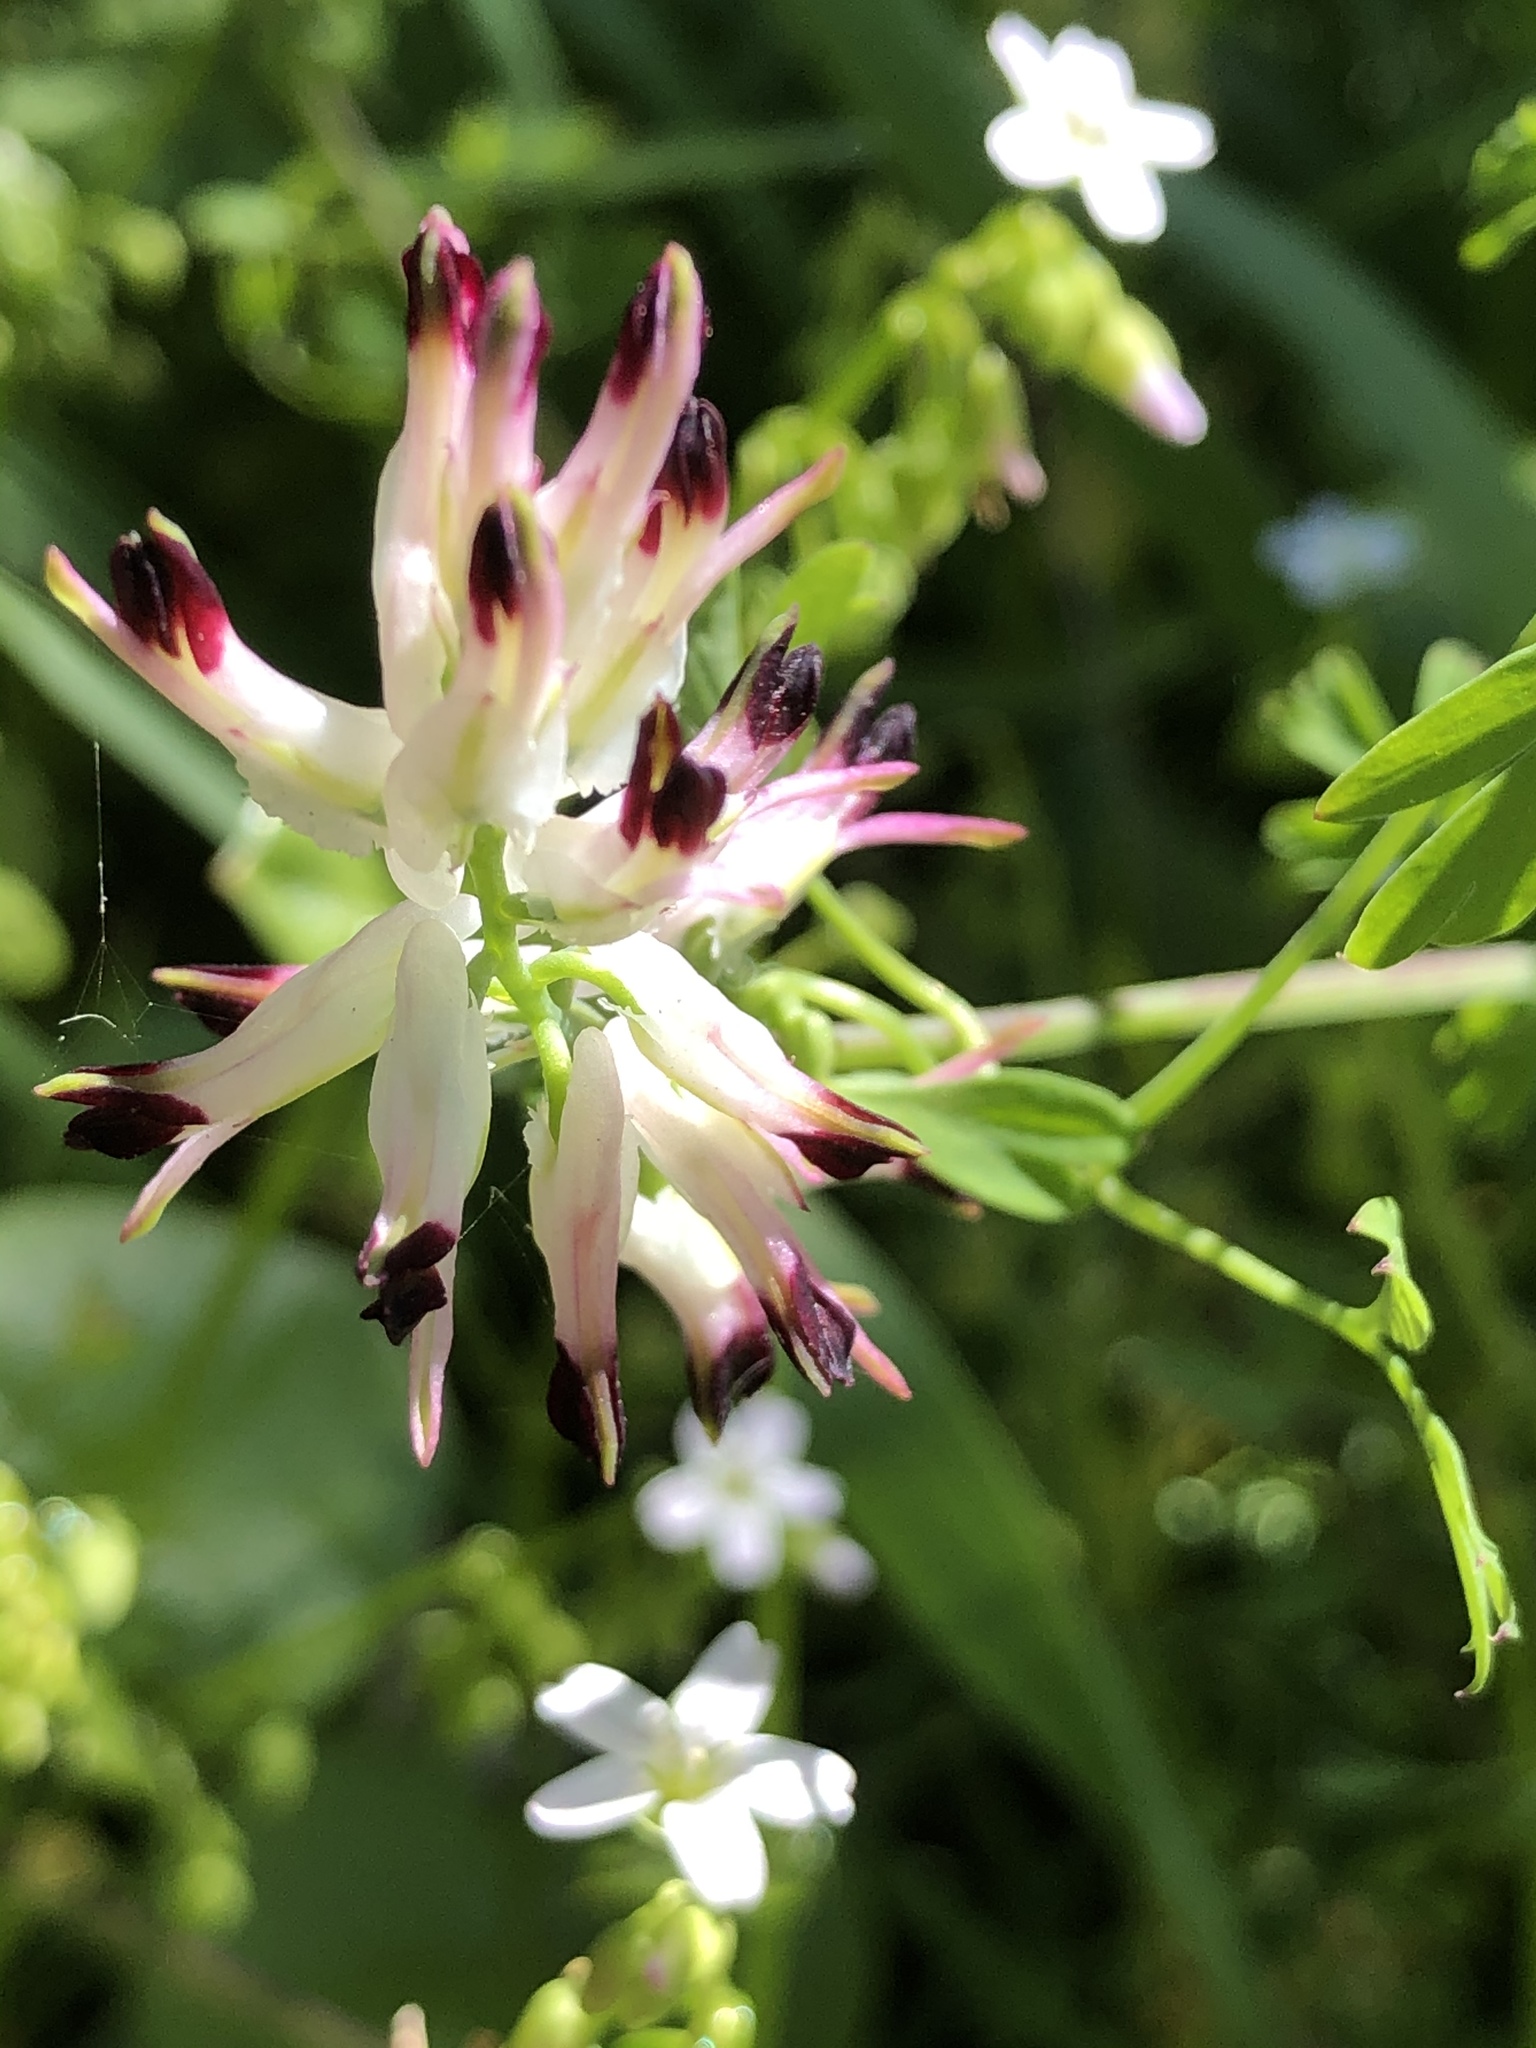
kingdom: Plantae
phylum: Tracheophyta
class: Magnoliopsida
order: Ranunculales
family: Papaveraceae
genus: Fumaria
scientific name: Fumaria capreolata
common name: White ramping-fumitory
